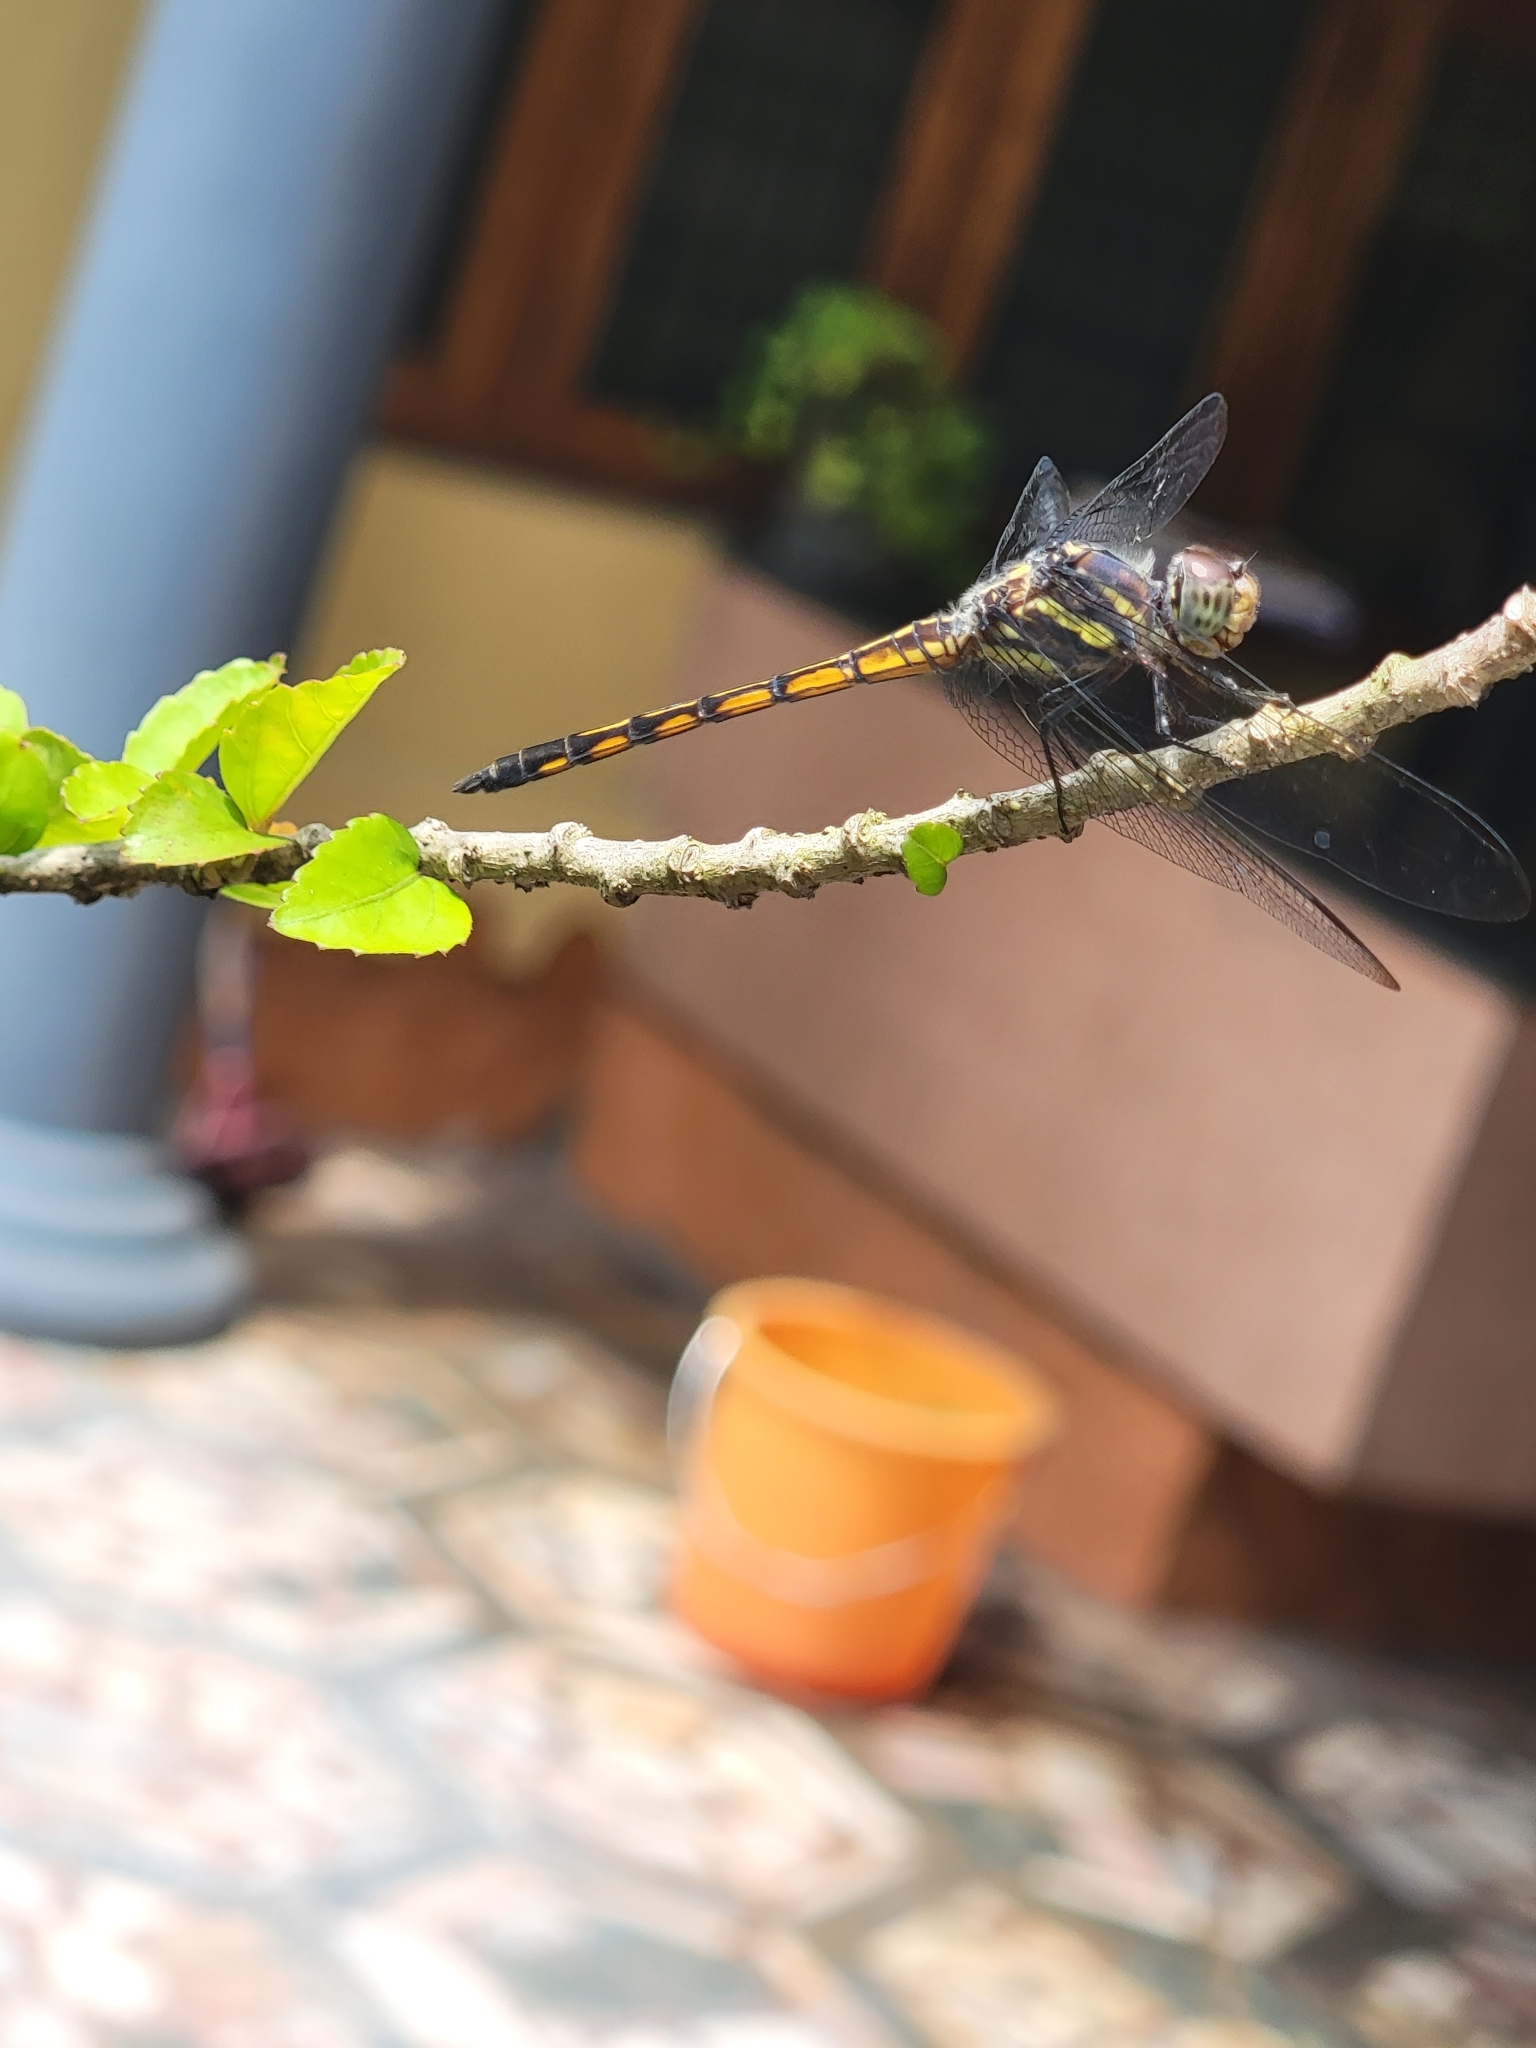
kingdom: Animalia
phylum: Arthropoda
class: Insecta
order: Odonata
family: Libellulidae
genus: Potamarcha
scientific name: Potamarcha congener
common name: Blue chaser
